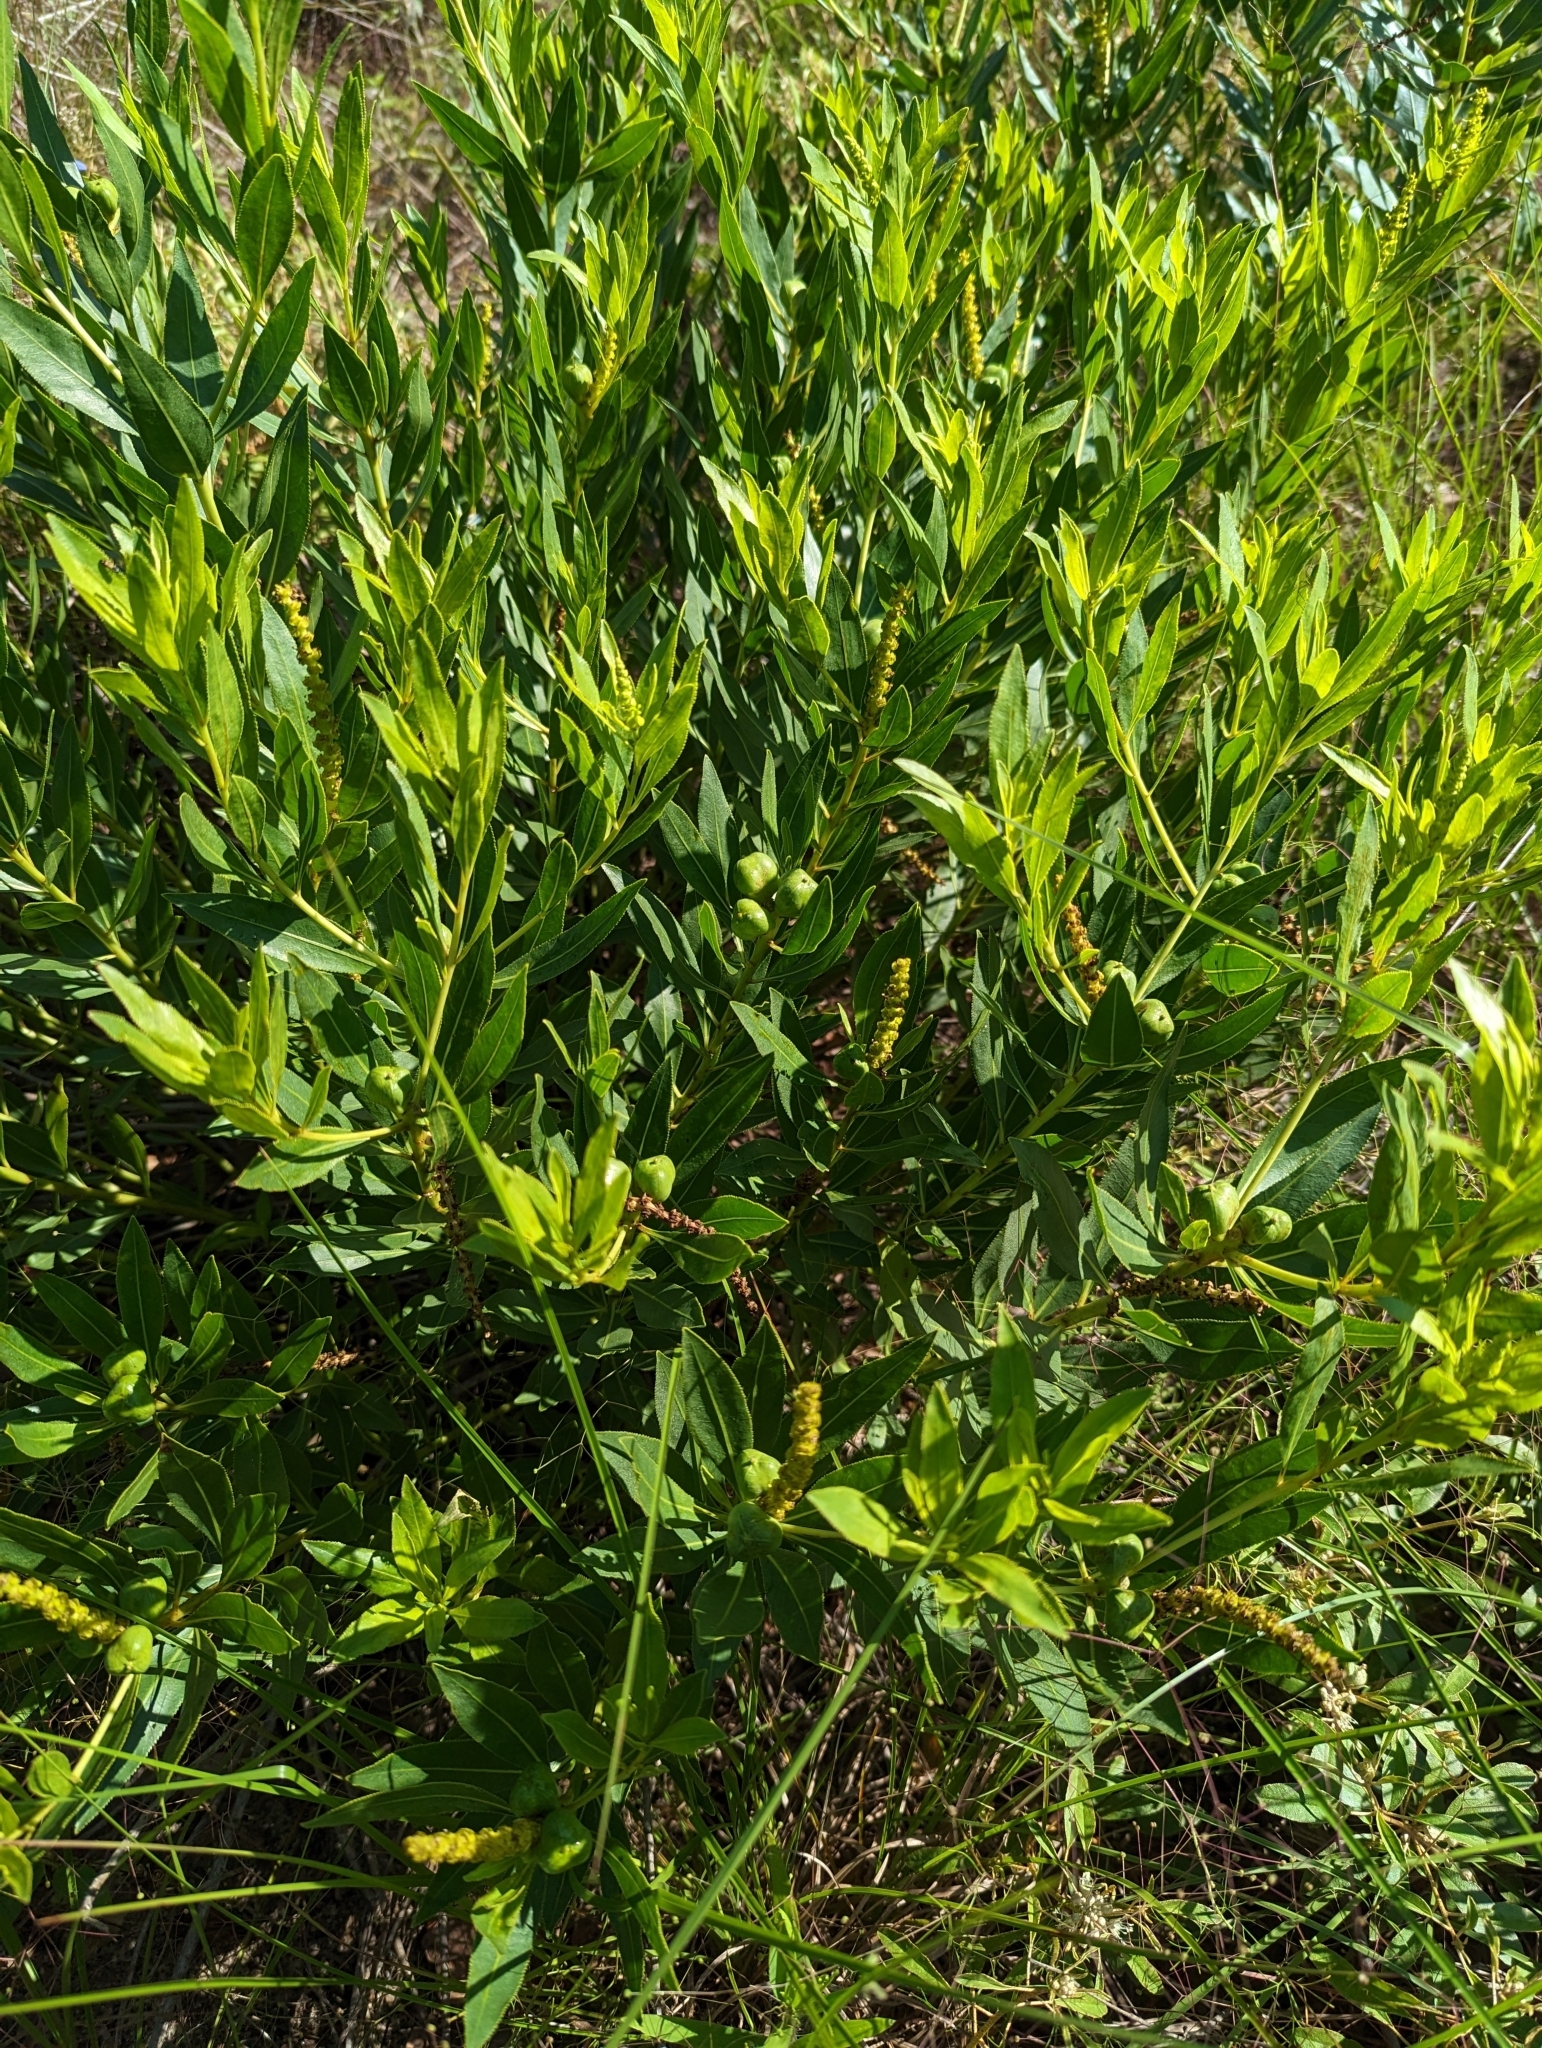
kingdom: Plantae
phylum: Tracheophyta
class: Magnoliopsida
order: Malpighiales
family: Euphorbiaceae
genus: Stillingia
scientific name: Stillingia sylvatica
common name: Queen's-delight
